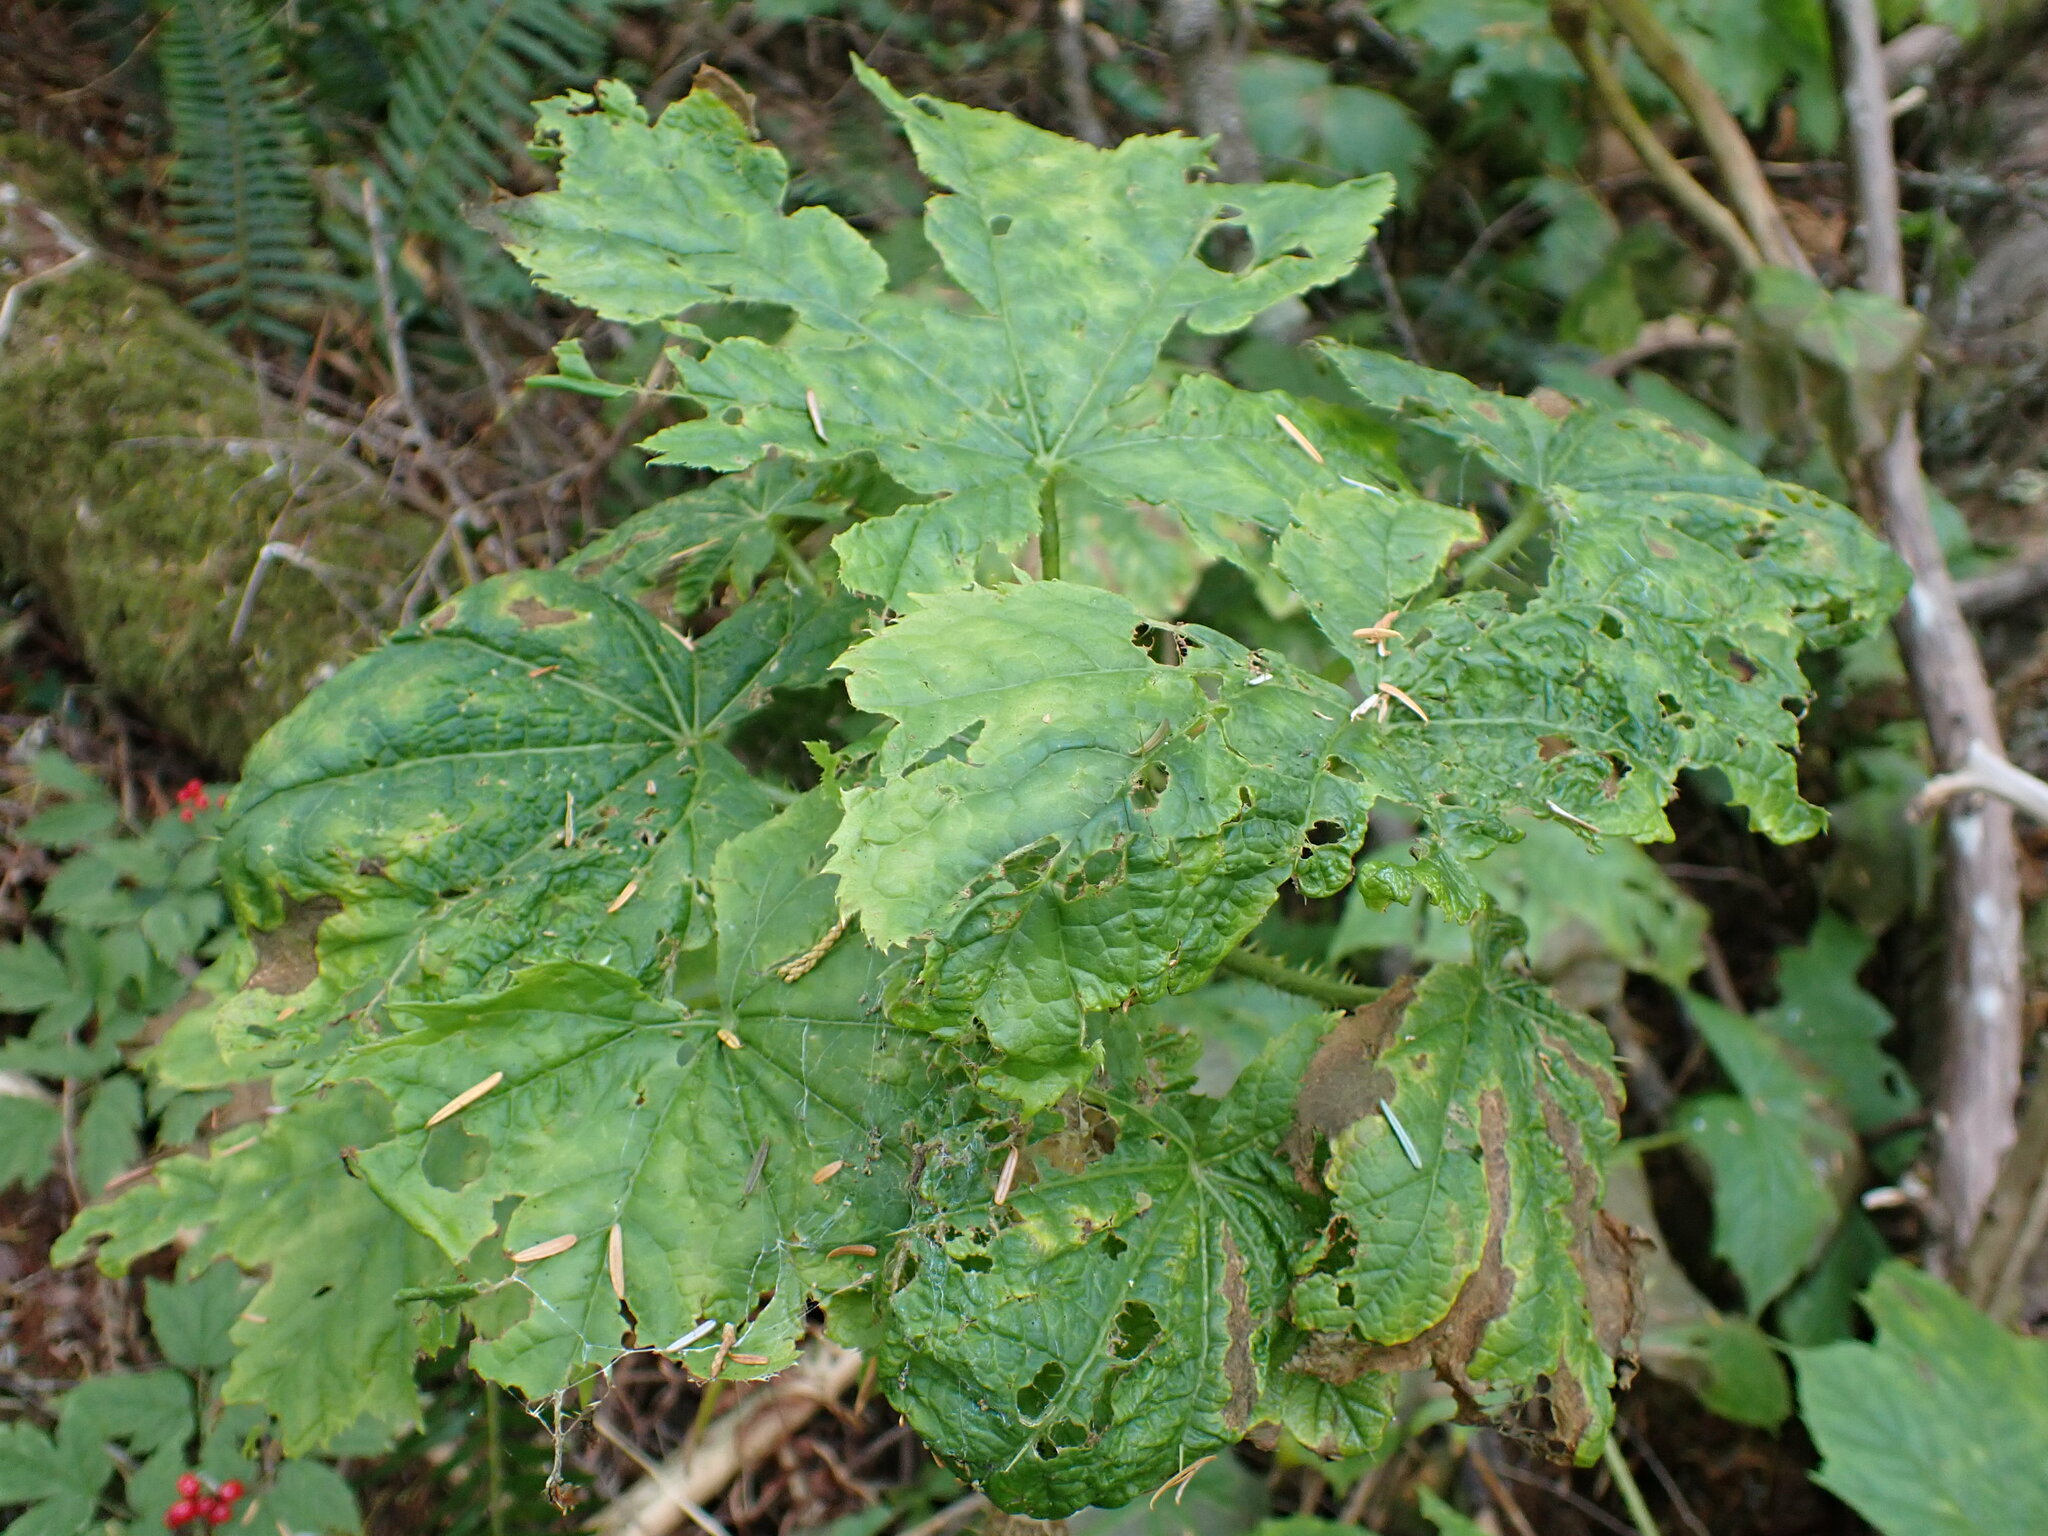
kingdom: Plantae
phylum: Tracheophyta
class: Magnoliopsida
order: Apiales
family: Araliaceae
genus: Oplopanax
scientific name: Oplopanax horridus
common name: Devil's walking-stick
